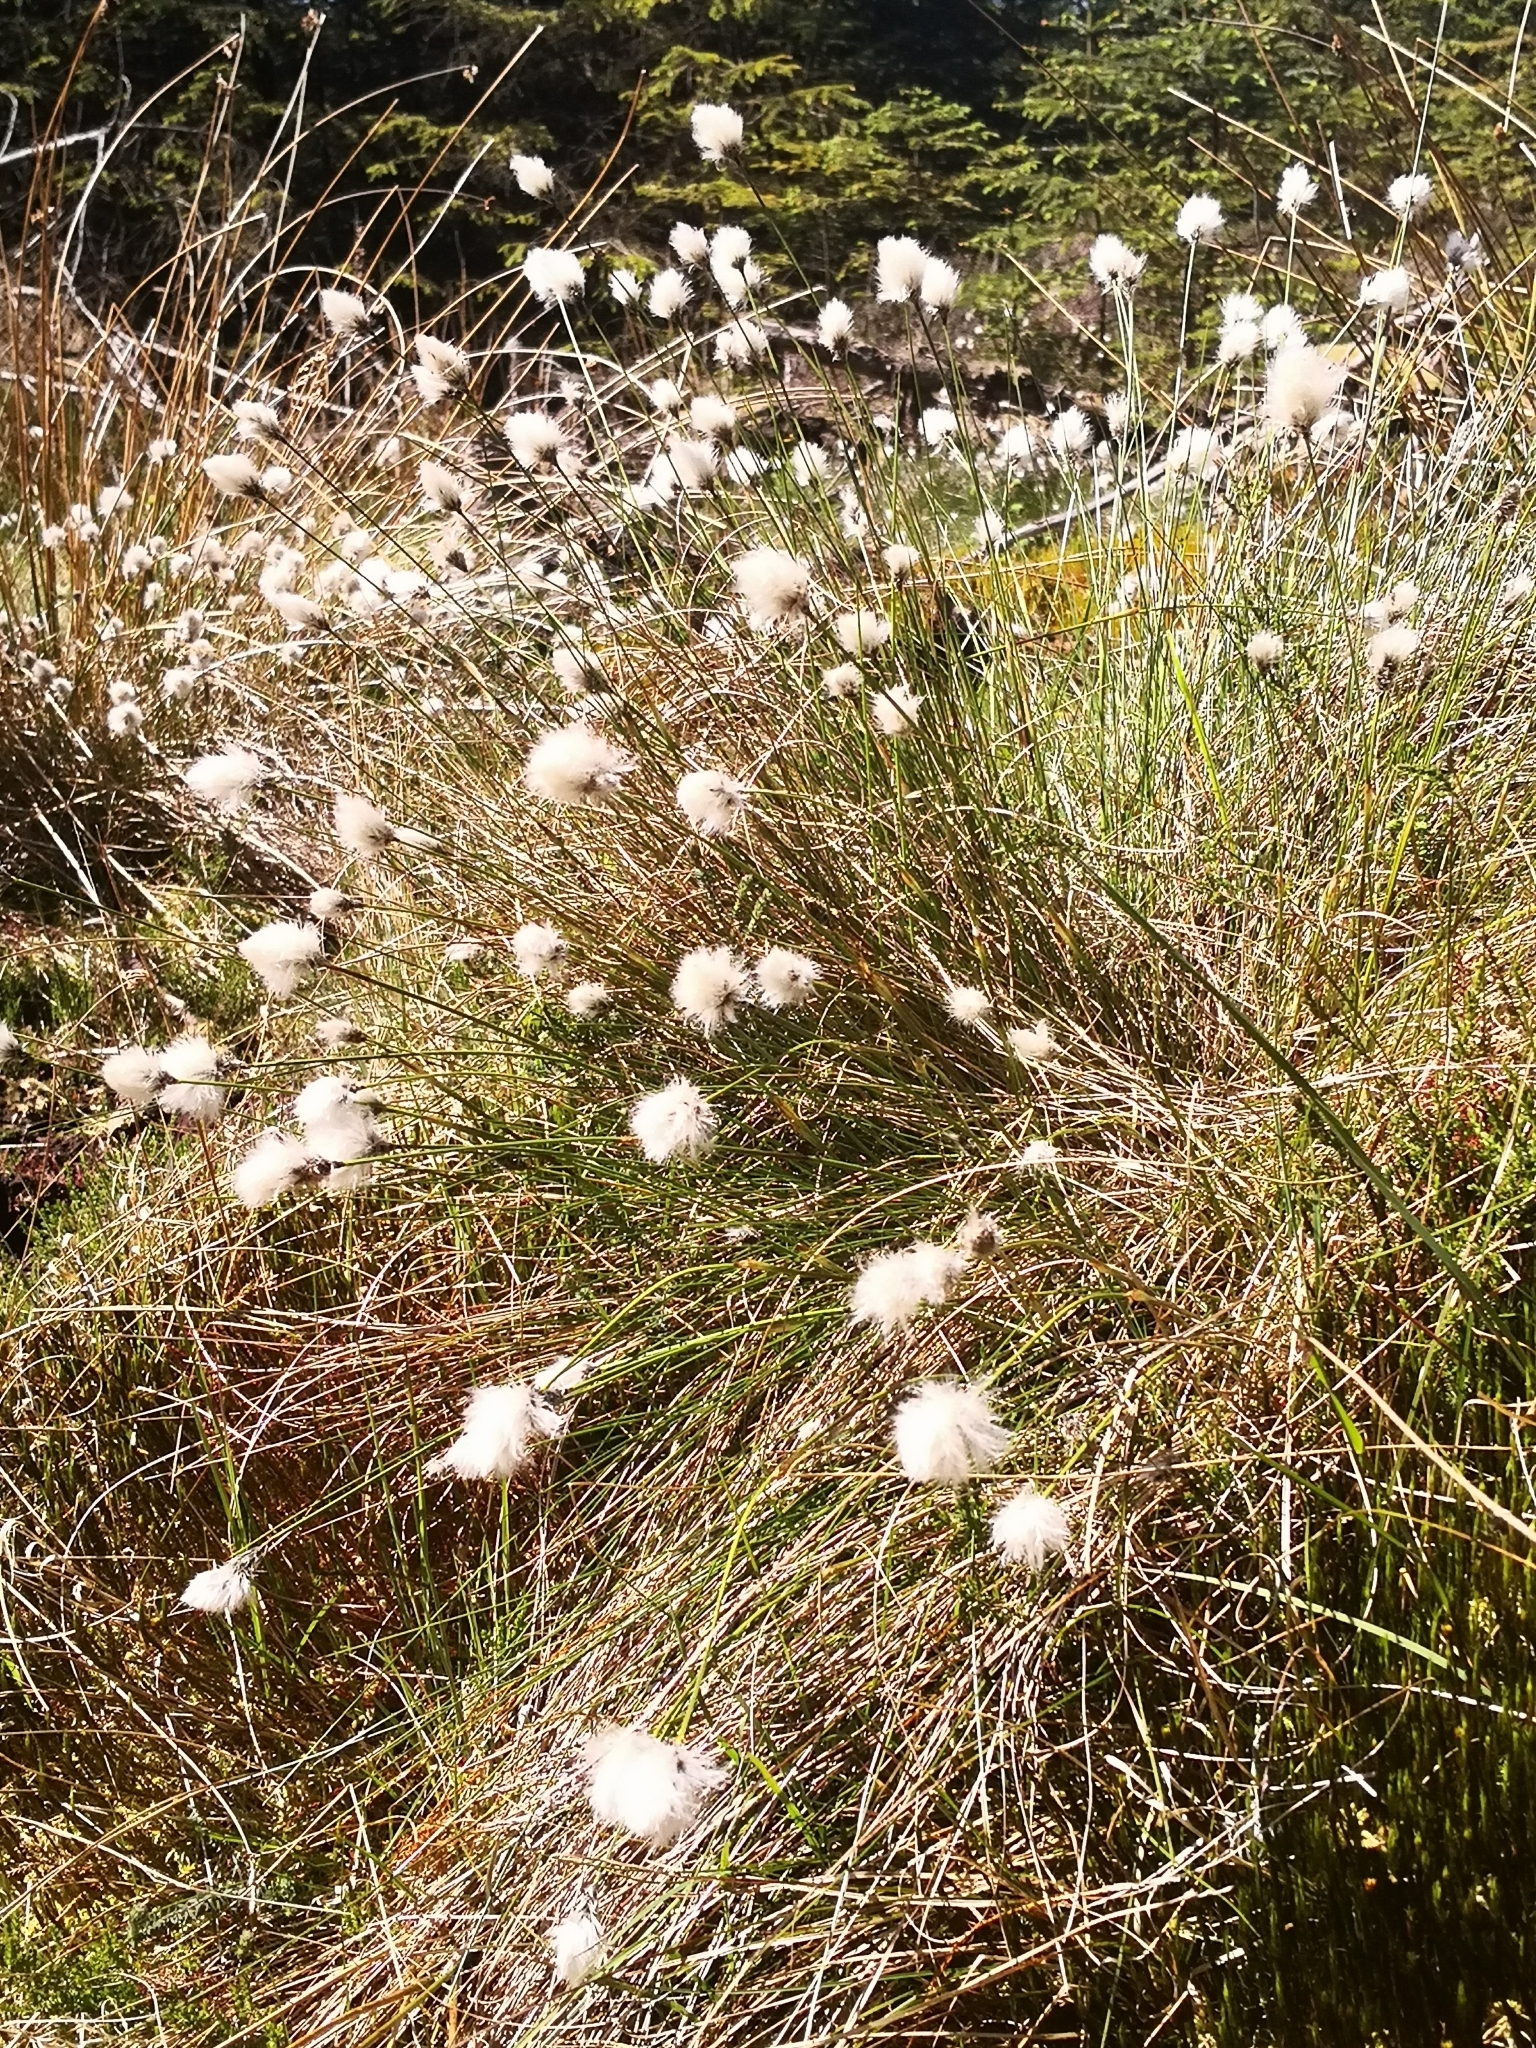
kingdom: Plantae
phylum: Tracheophyta
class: Liliopsida
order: Poales
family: Cyperaceae
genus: Eriophorum
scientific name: Eriophorum vaginatum
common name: Hare's-tail cottongrass
